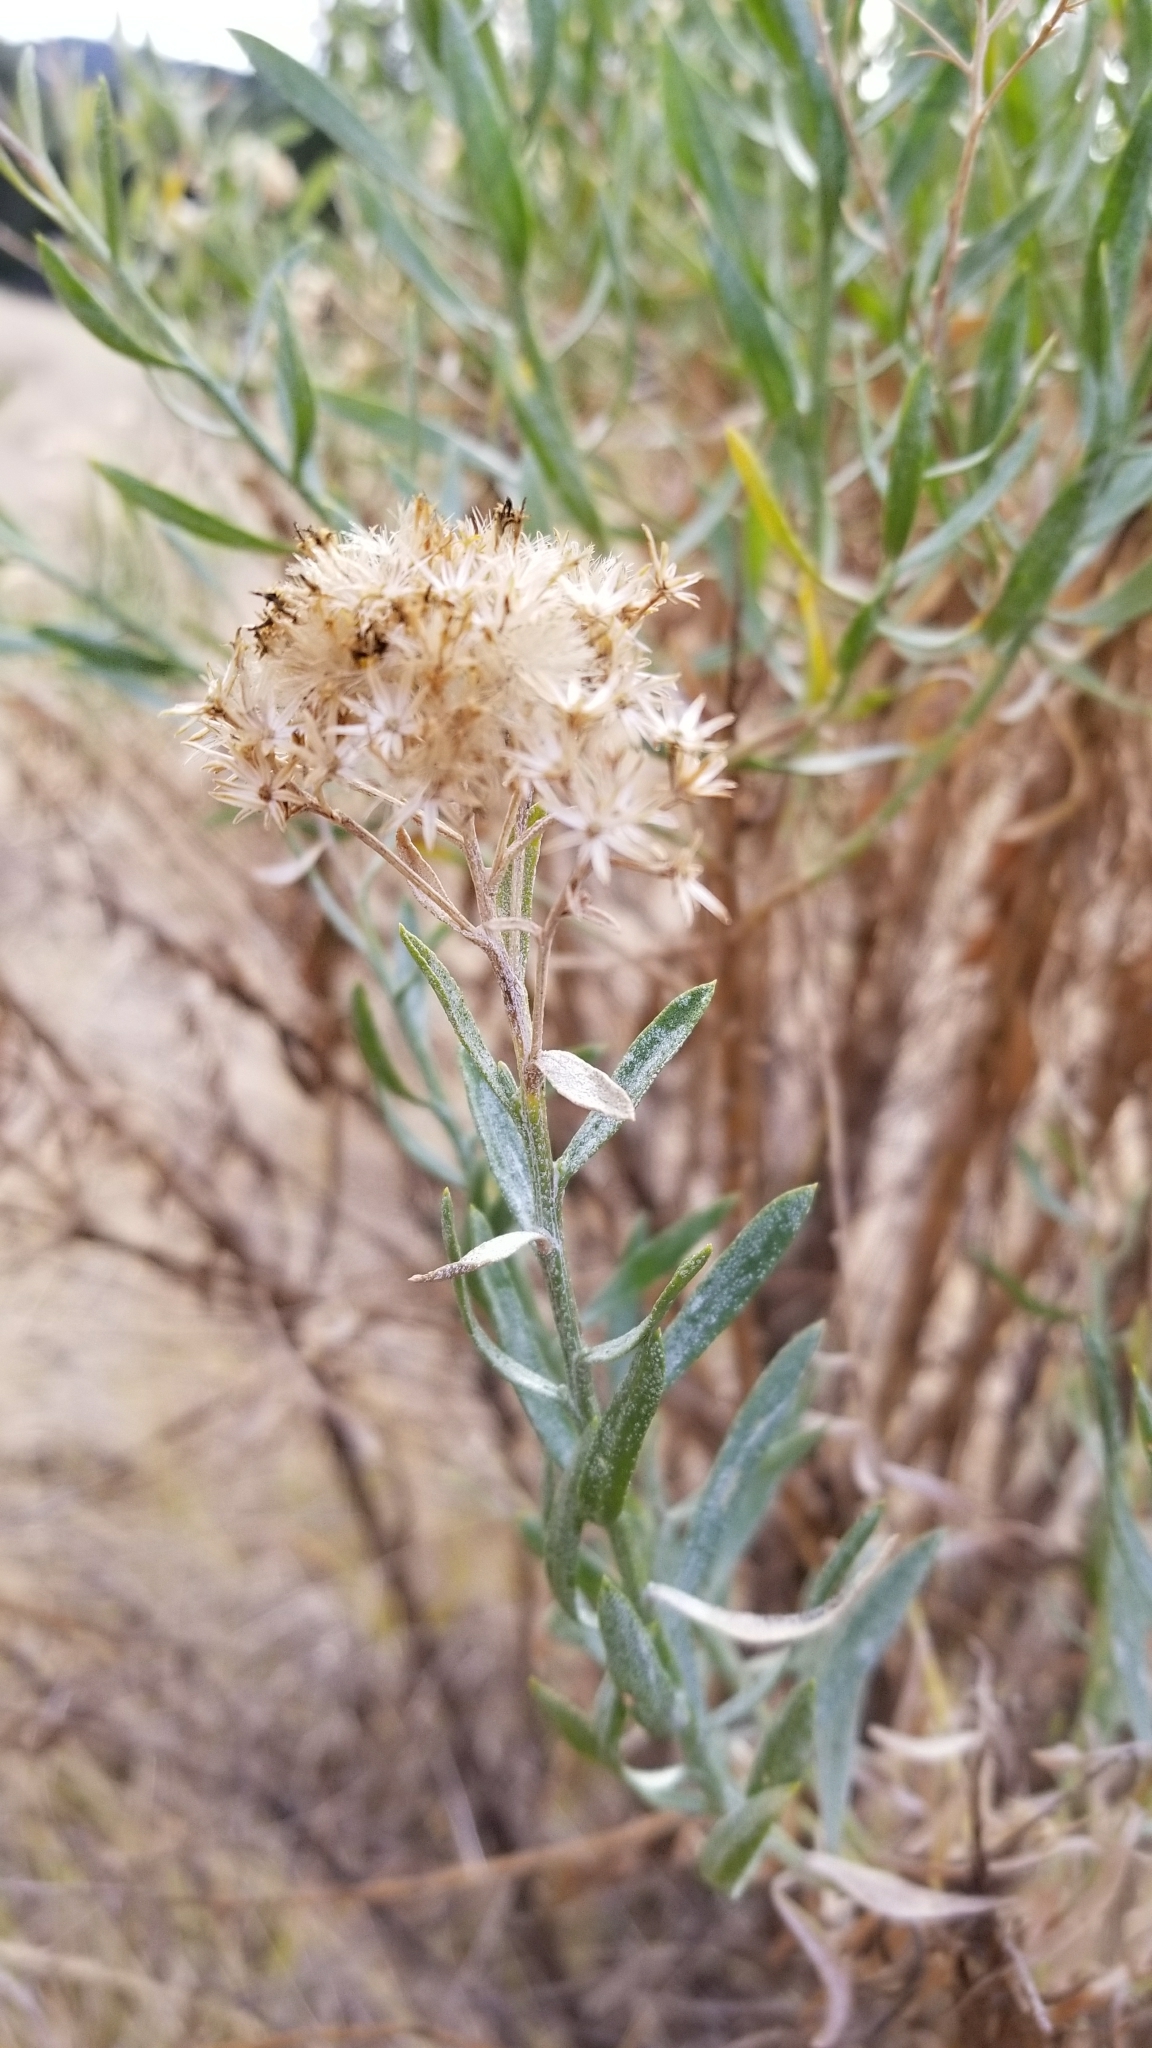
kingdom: Plantae
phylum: Tracheophyta
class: Magnoliopsida
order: Asterales
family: Asteraceae
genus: Ericameria
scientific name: Ericameria parishii
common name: Parish's goldenbush
